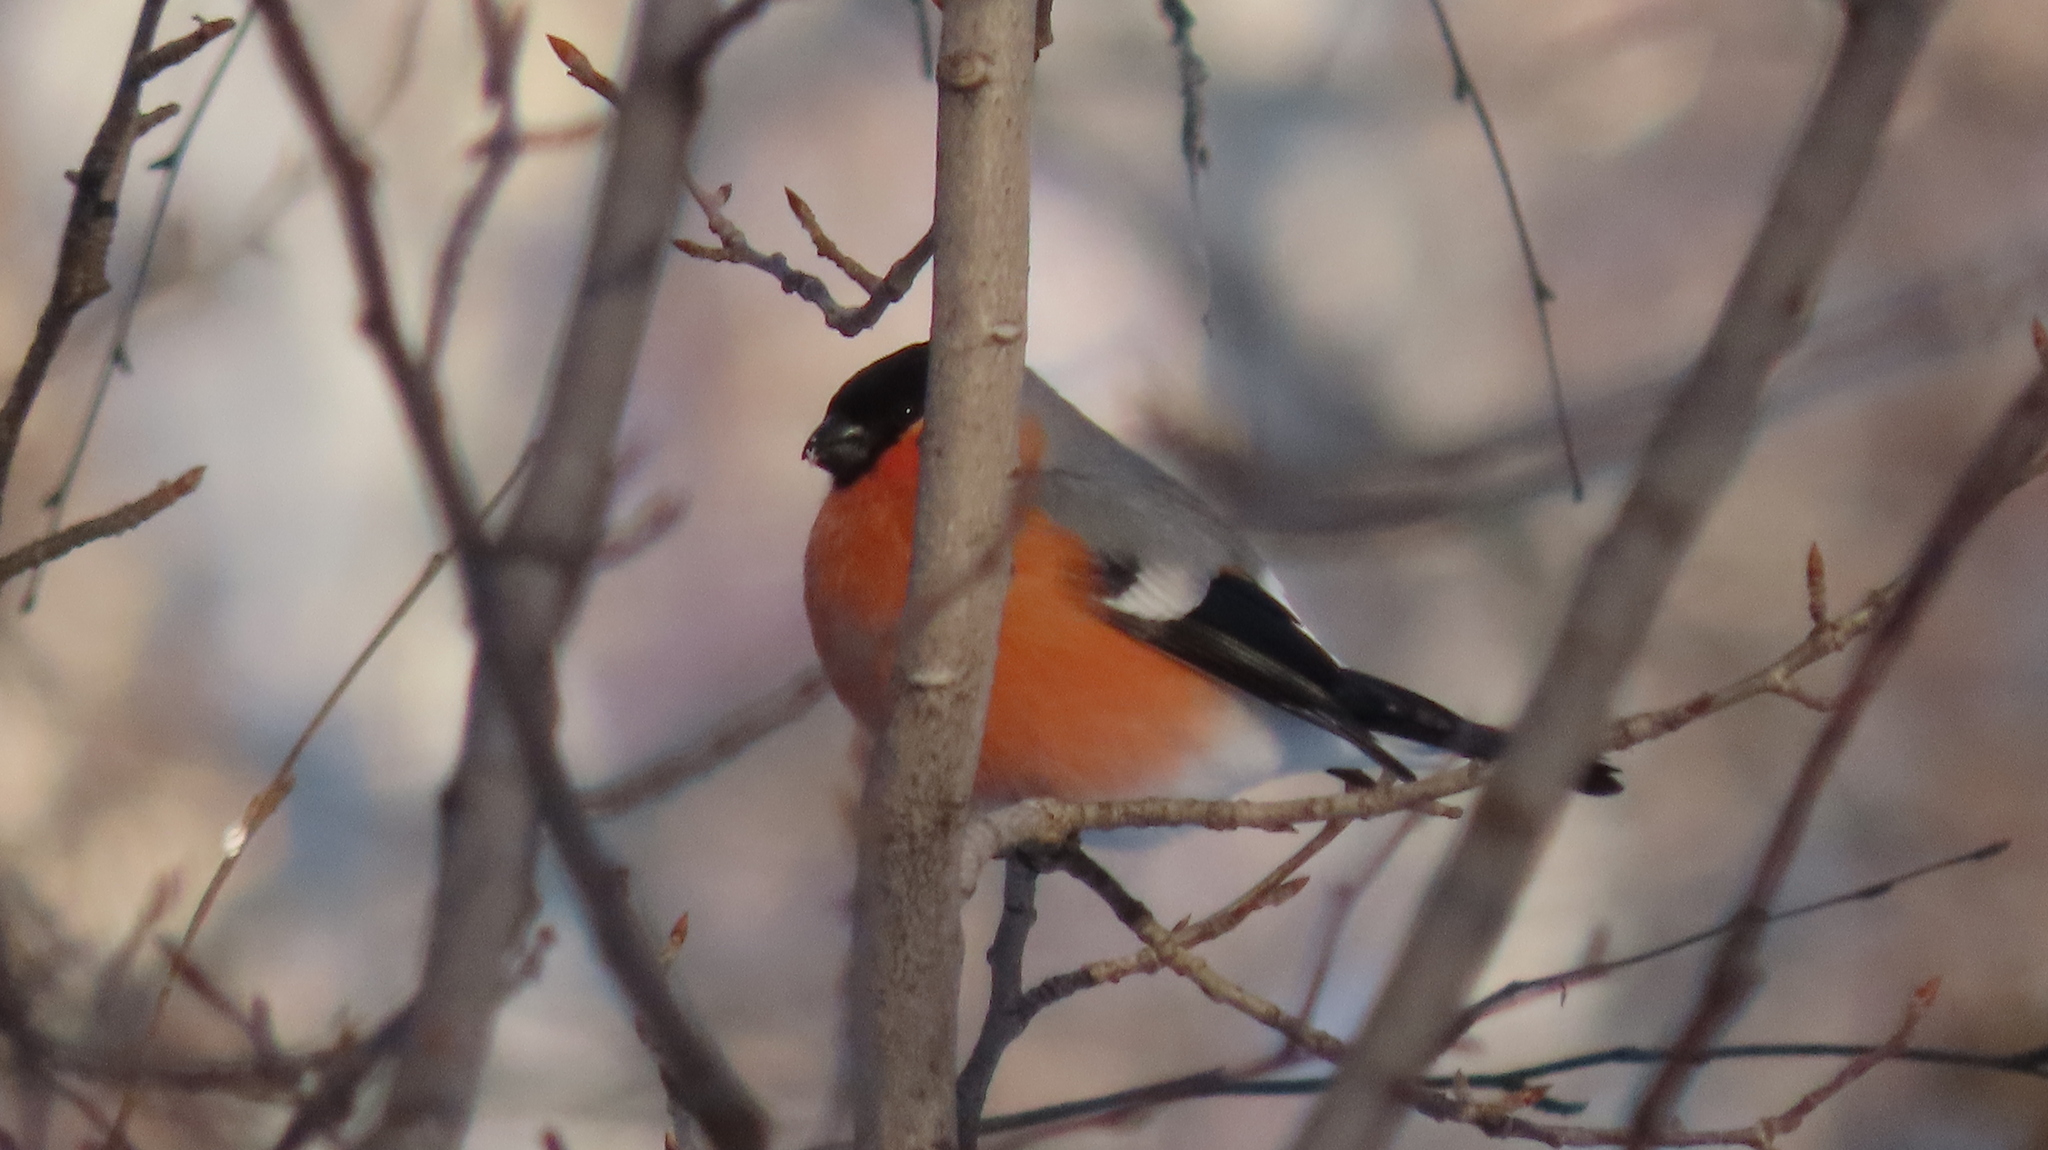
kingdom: Animalia
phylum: Chordata
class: Aves
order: Passeriformes
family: Fringillidae
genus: Pyrrhula
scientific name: Pyrrhula pyrrhula
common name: Eurasian bullfinch
